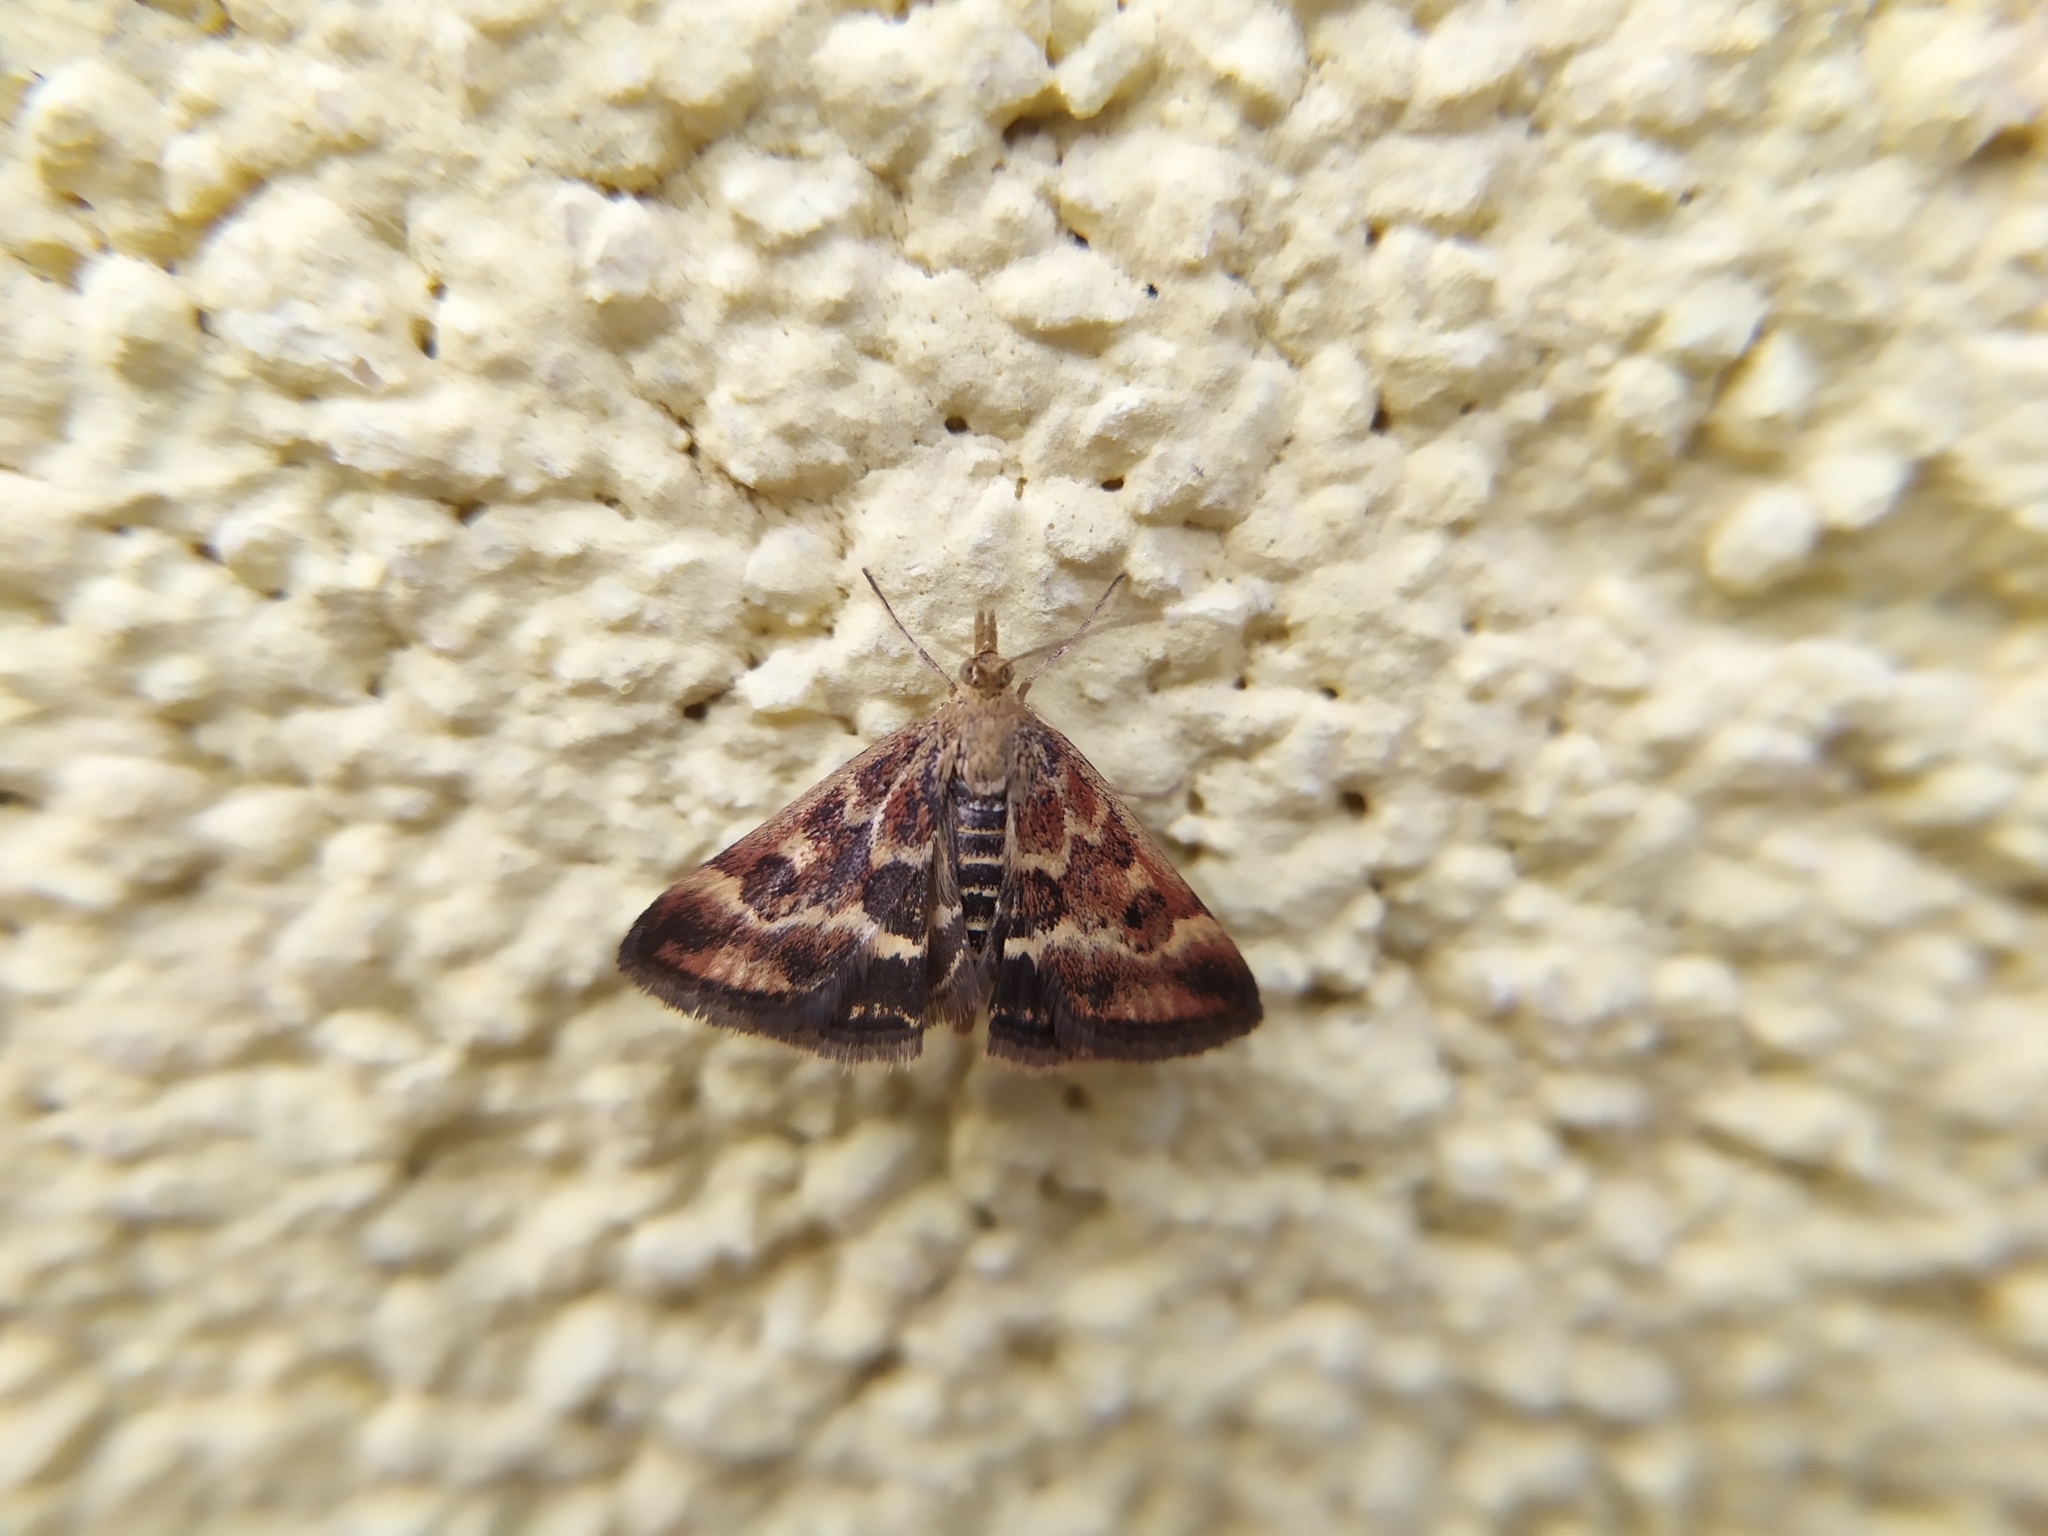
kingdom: Animalia
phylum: Arthropoda
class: Insecta
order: Lepidoptera
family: Crambidae
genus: Pyrausta
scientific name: Pyrausta despicata
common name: Straw-barred pearl
